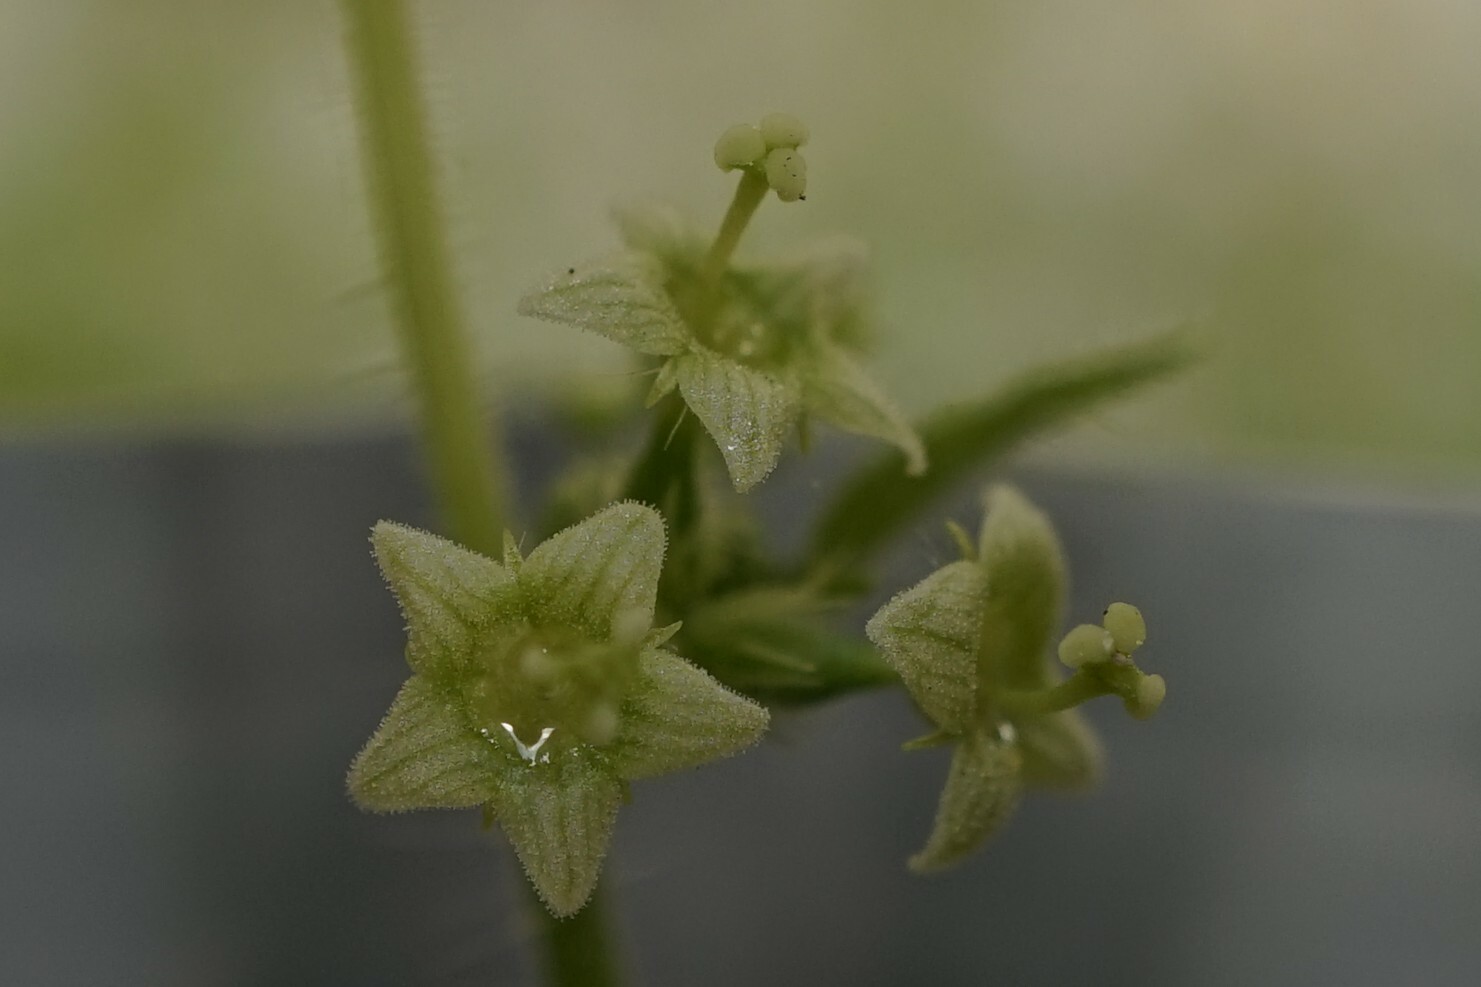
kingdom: Plantae
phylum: Tracheophyta
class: Magnoliopsida
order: Cucurbitales
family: Cucurbitaceae
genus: Sicyos
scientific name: Sicyos angulatus
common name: Angled burr cucumber
